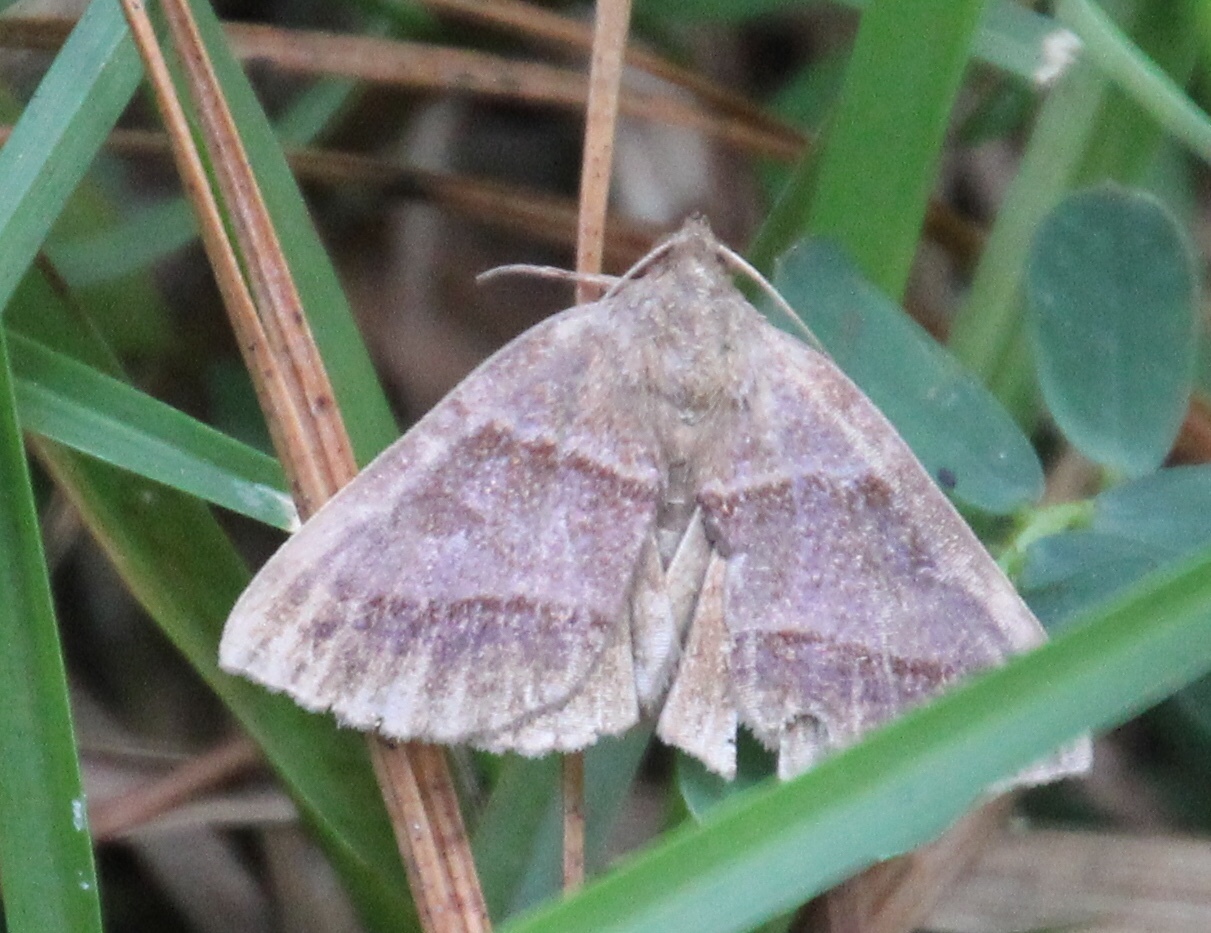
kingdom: Animalia
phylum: Arthropoda
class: Insecta
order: Lepidoptera
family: Erebidae
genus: Argyrostrotis
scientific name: Argyrostrotis sylvarum
